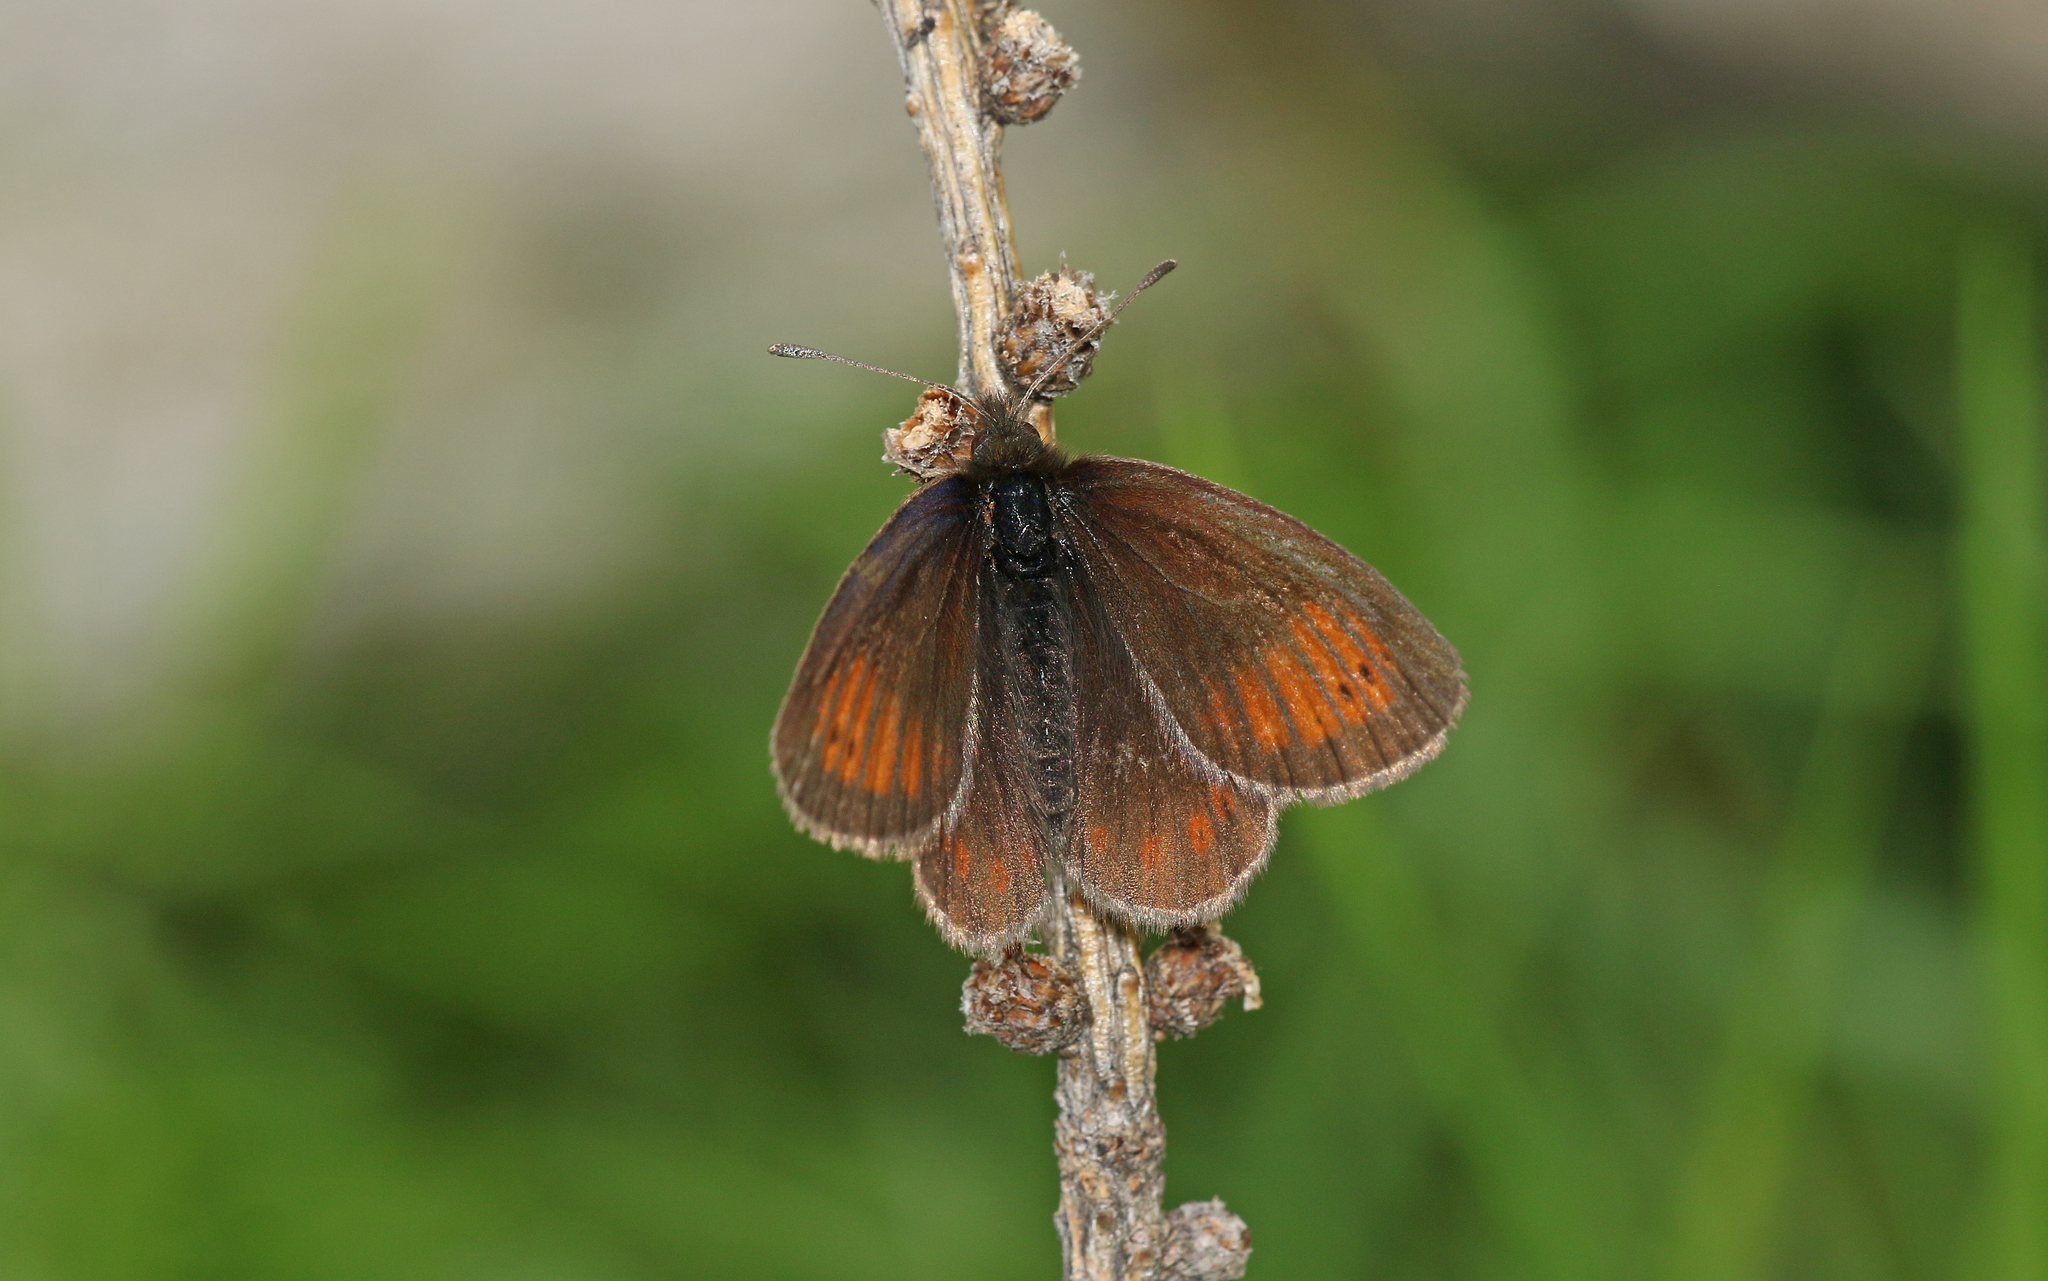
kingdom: Animalia
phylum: Arthropoda
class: Insecta
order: Lepidoptera
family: Nymphalidae
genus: Erebia
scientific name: Erebia christi
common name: Raetzer's ringlet
